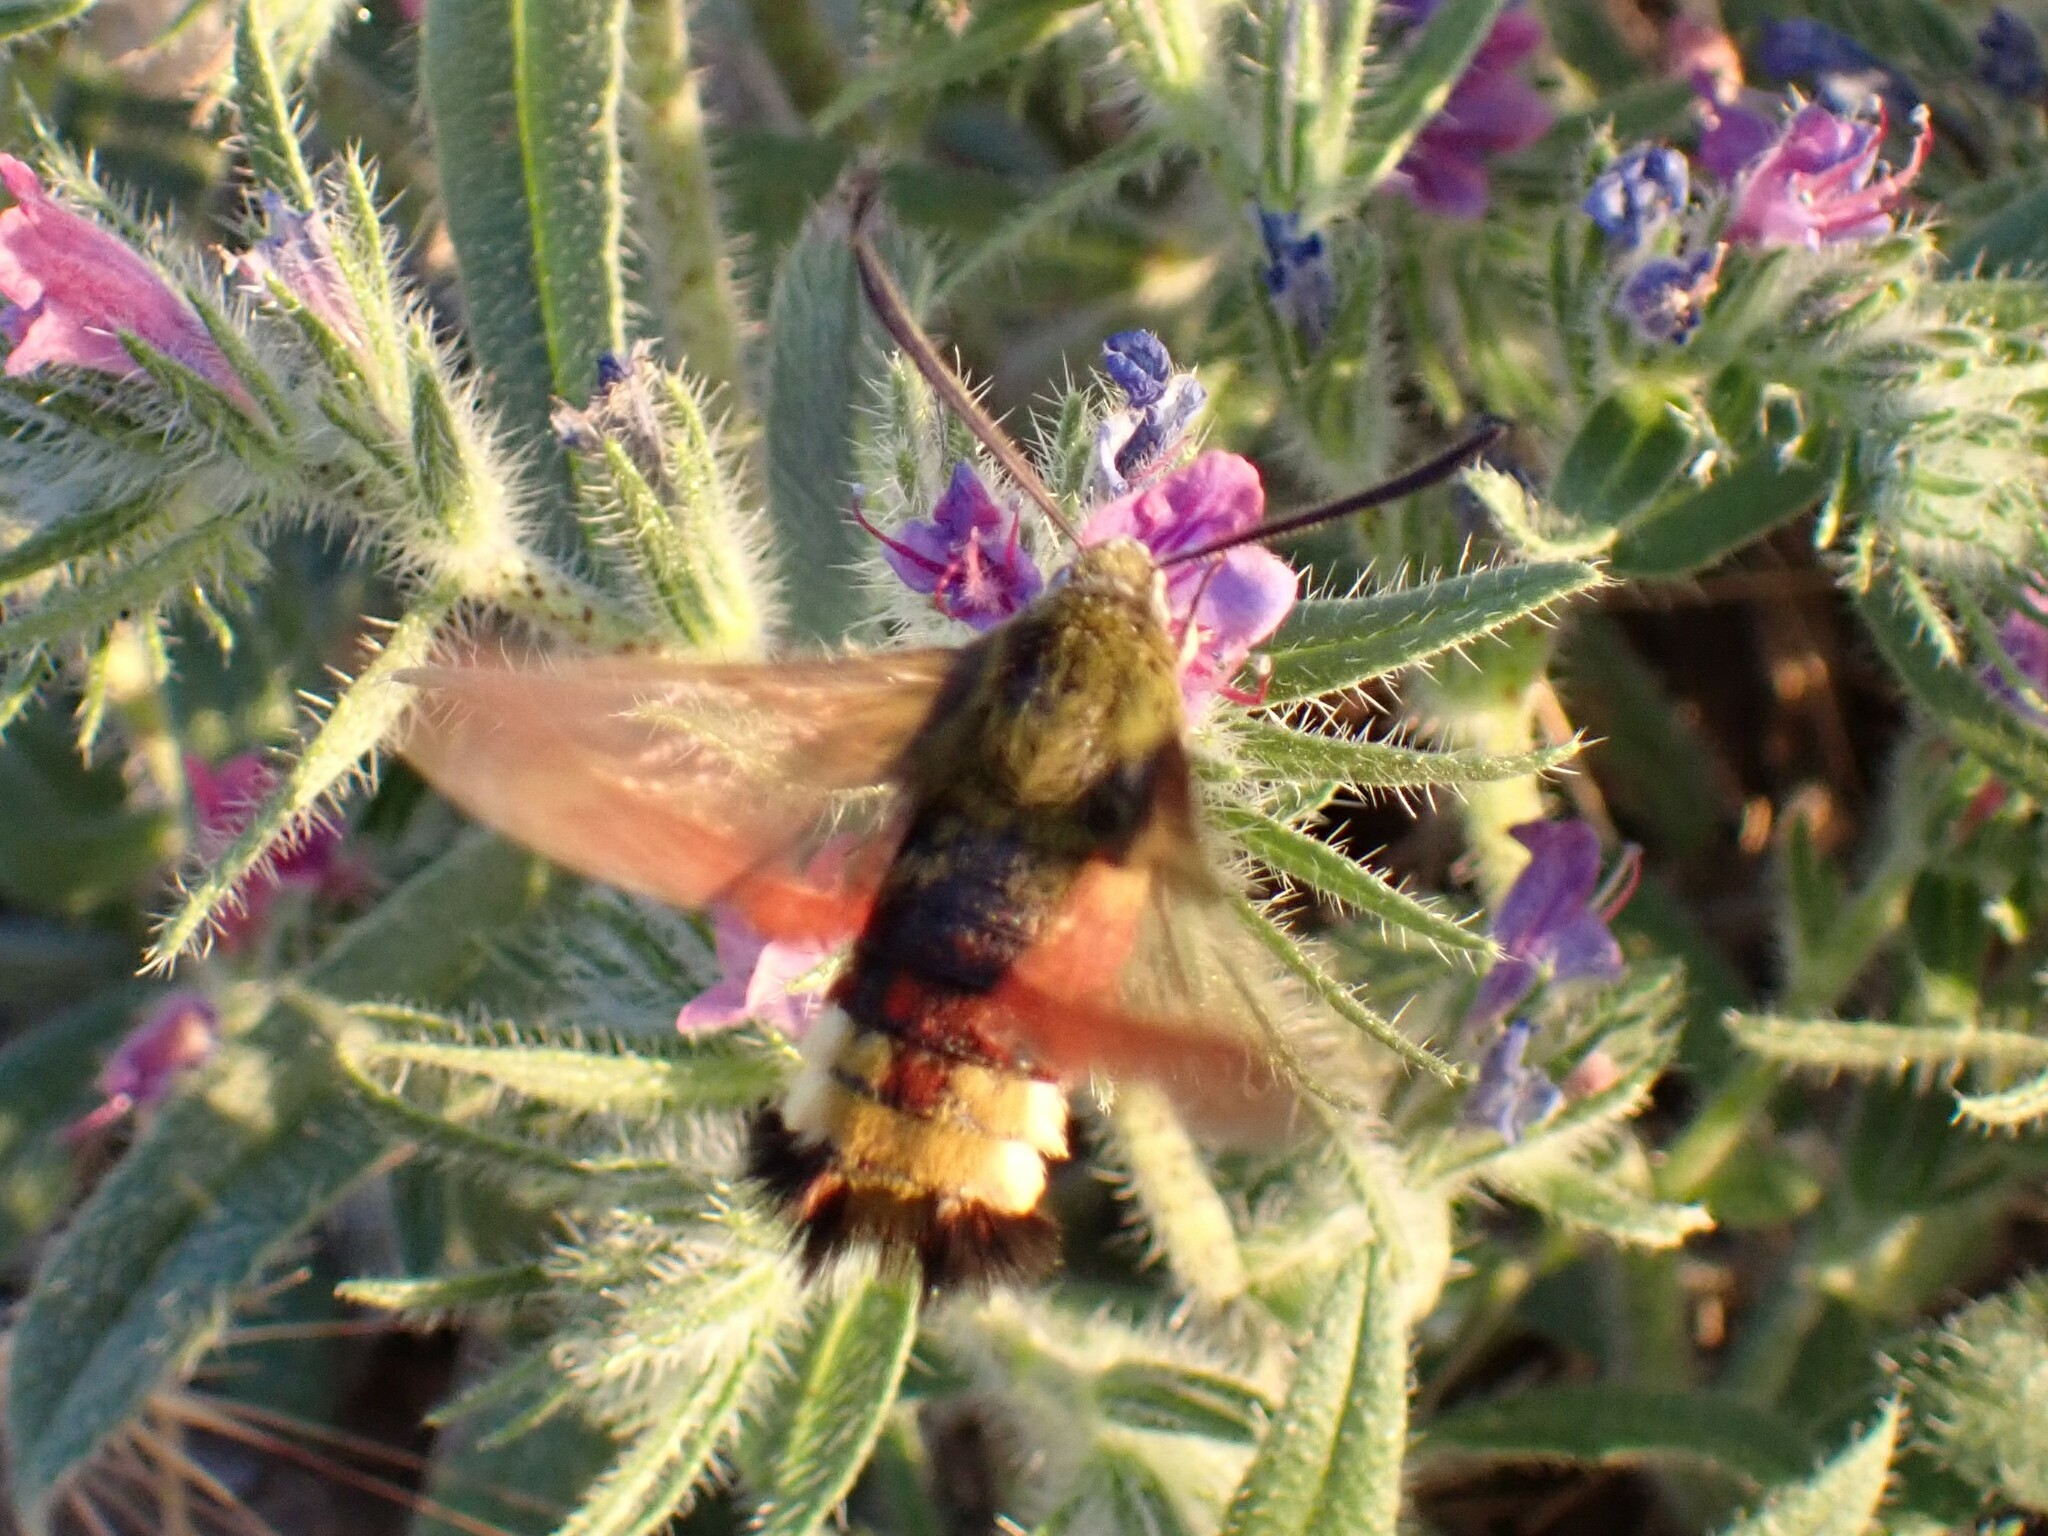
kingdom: Animalia
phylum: Arthropoda
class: Insecta
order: Lepidoptera
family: Sphingidae
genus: Hemaris
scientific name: Hemaris fuciformis
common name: Broad-bordered bee hawk-moth
